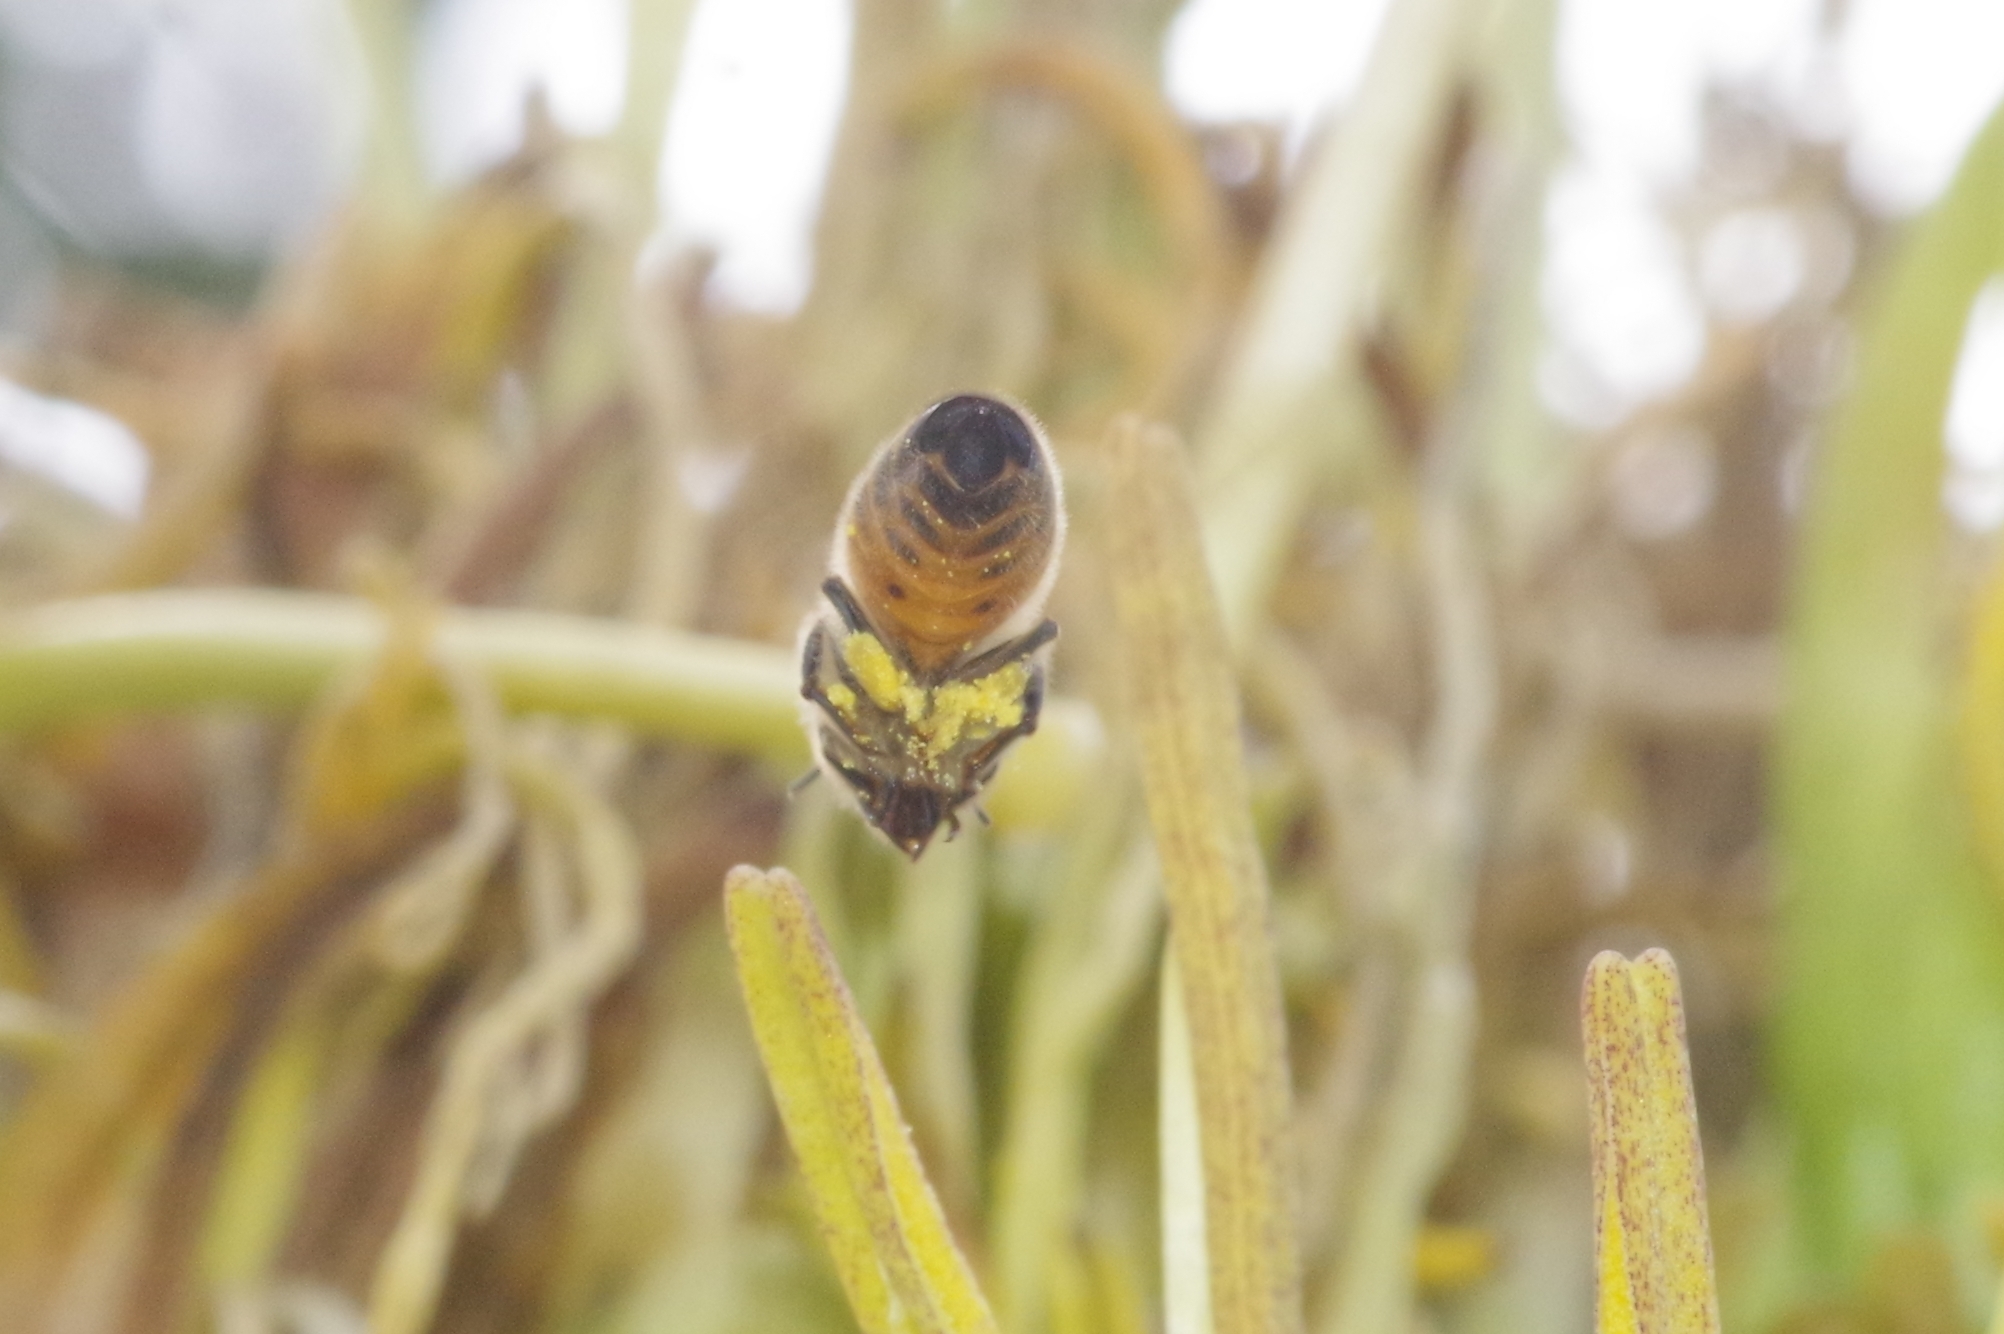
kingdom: Animalia
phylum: Arthropoda
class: Insecta
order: Hymenoptera
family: Apidae
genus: Apis
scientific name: Apis mellifera
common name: Honey bee
